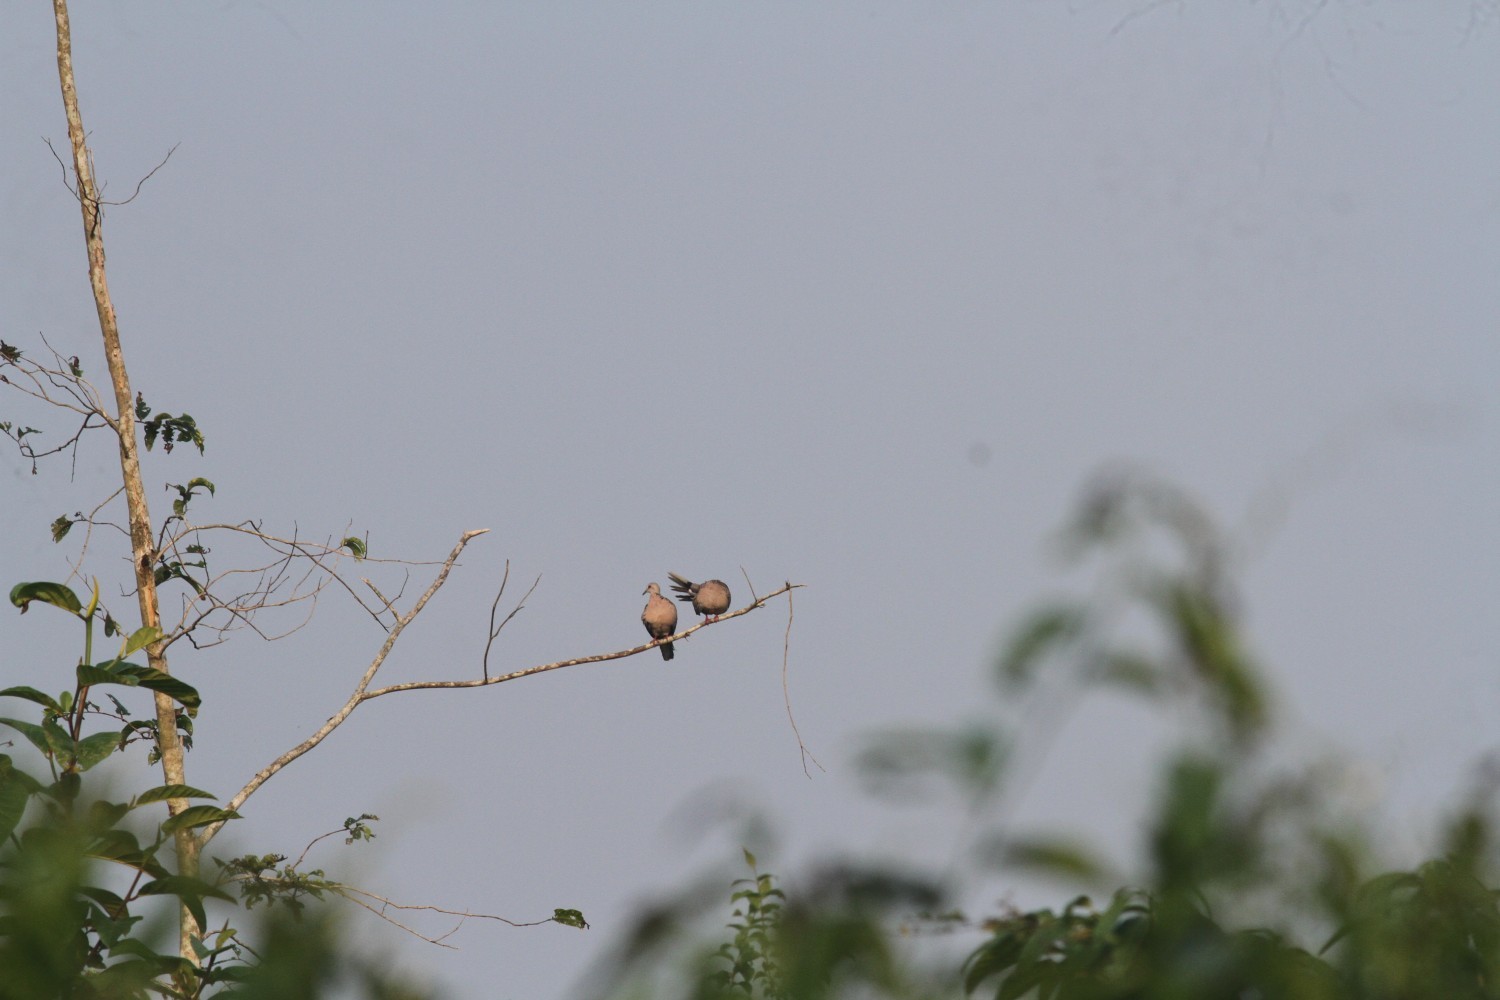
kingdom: Animalia
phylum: Chordata
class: Aves
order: Columbiformes
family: Columbidae
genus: Spilopelia
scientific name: Spilopelia chinensis
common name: Spotted dove
